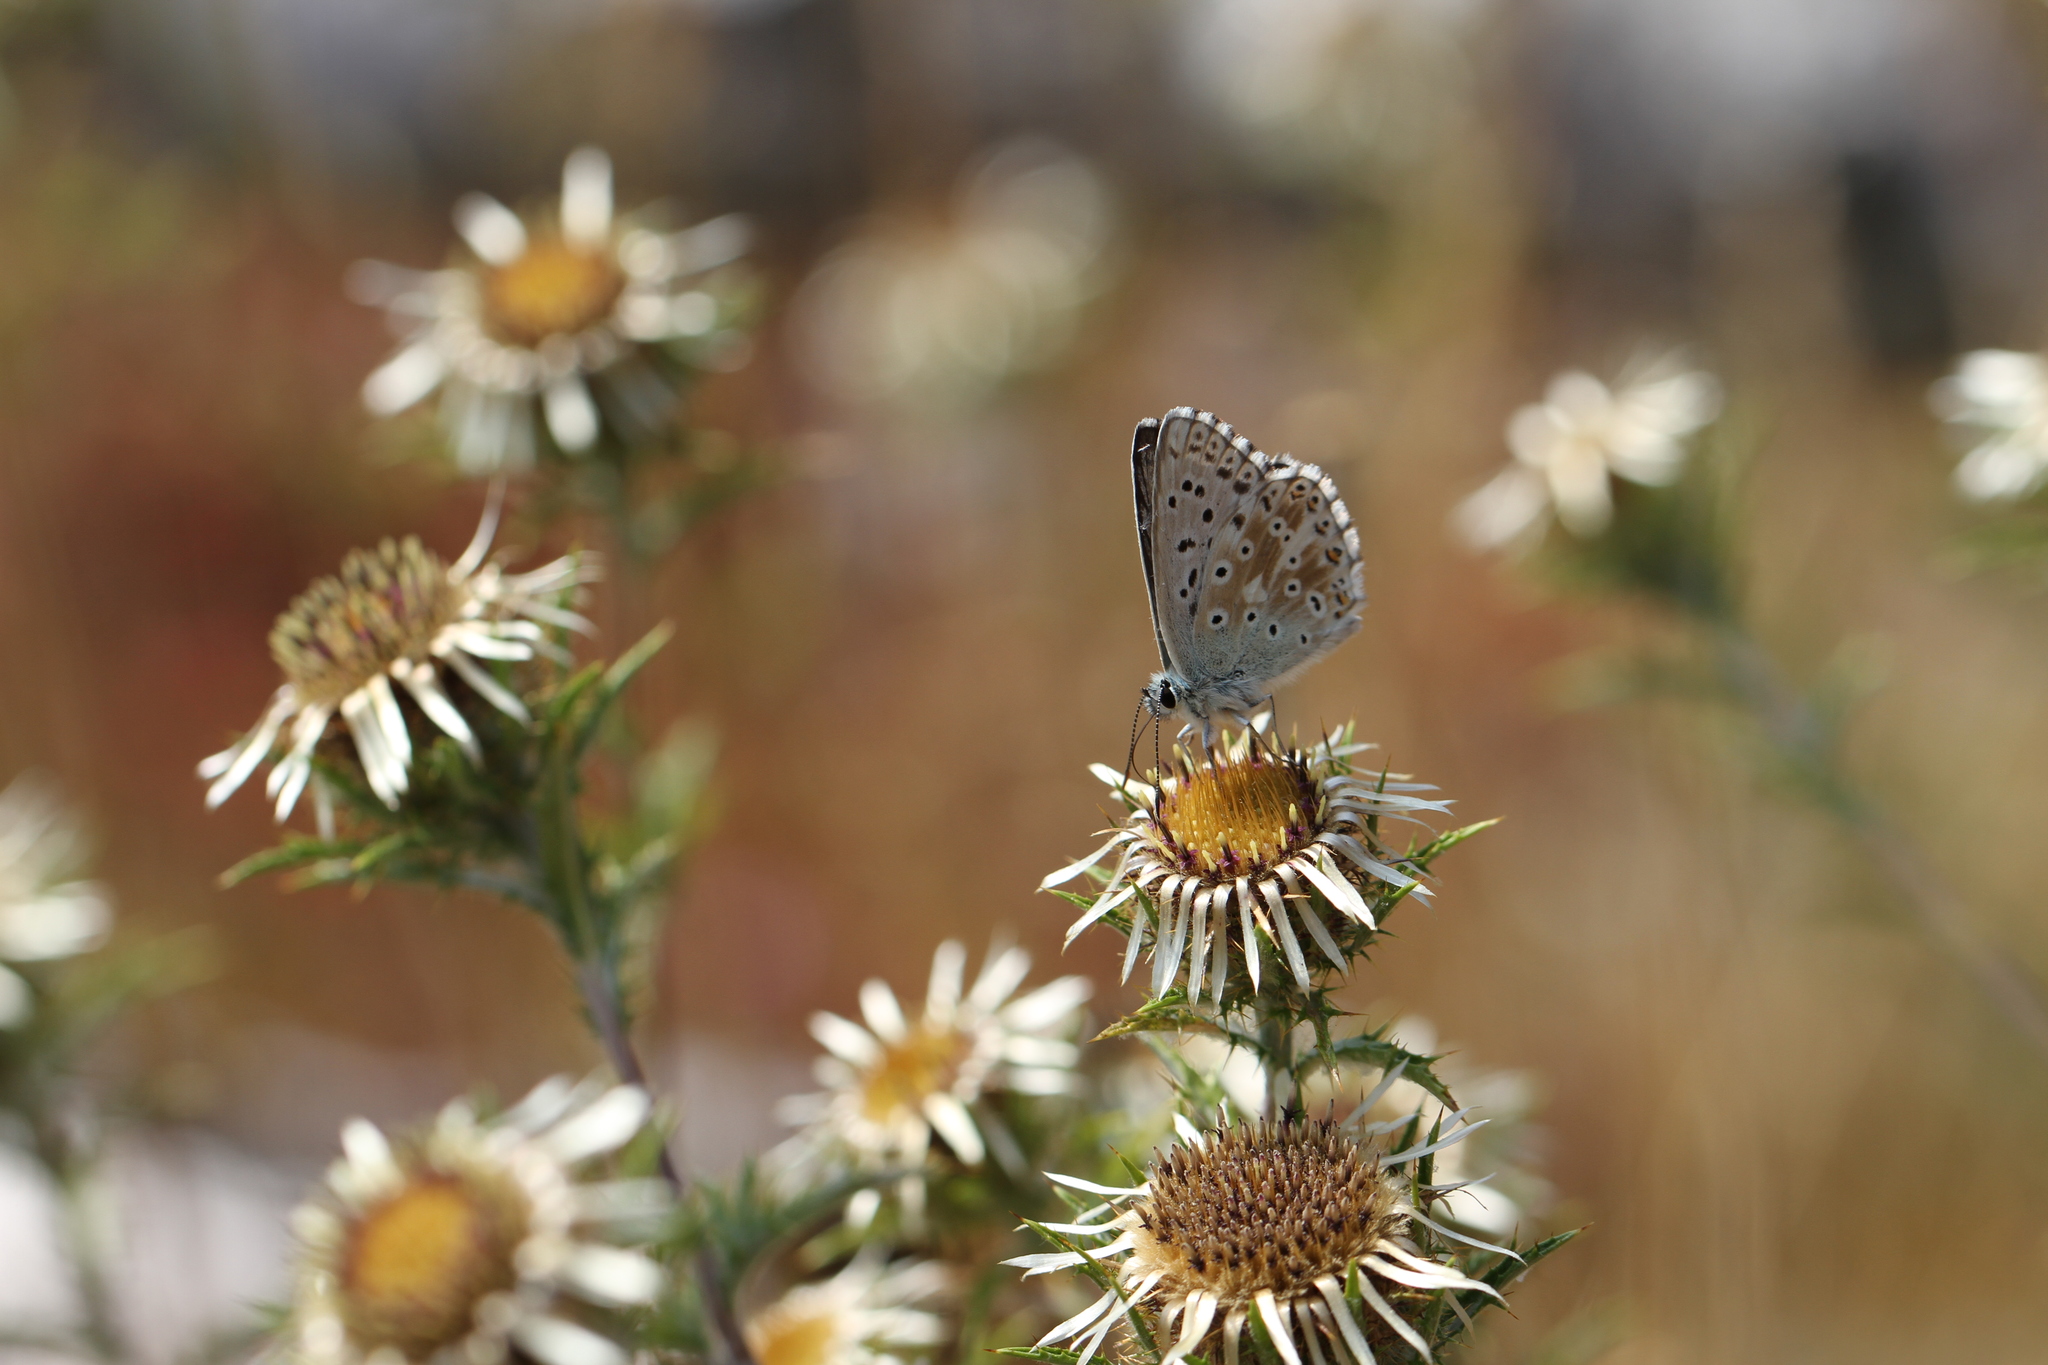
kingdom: Animalia
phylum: Arthropoda
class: Insecta
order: Lepidoptera
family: Lycaenidae
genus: Lysandra
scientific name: Lysandra coridon
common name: Chalkhill blue
